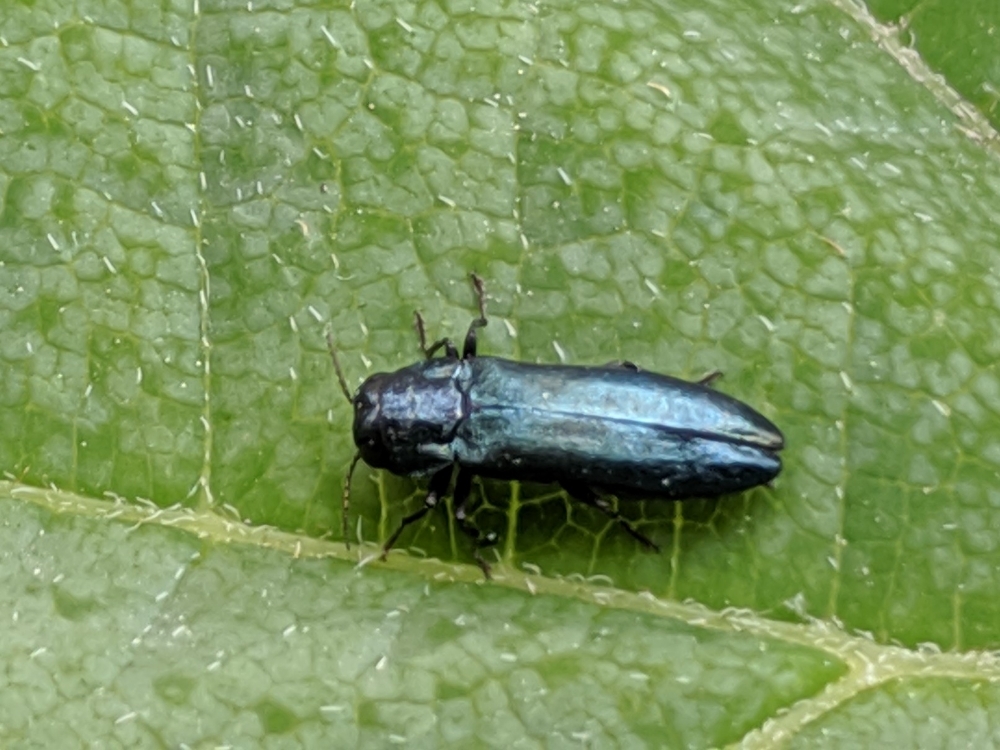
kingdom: Animalia
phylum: Arthropoda
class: Insecta
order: Coleoptera
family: Buprestidae
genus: Agrilus
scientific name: Agrilus cyanescens
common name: Bluish borer beetle
